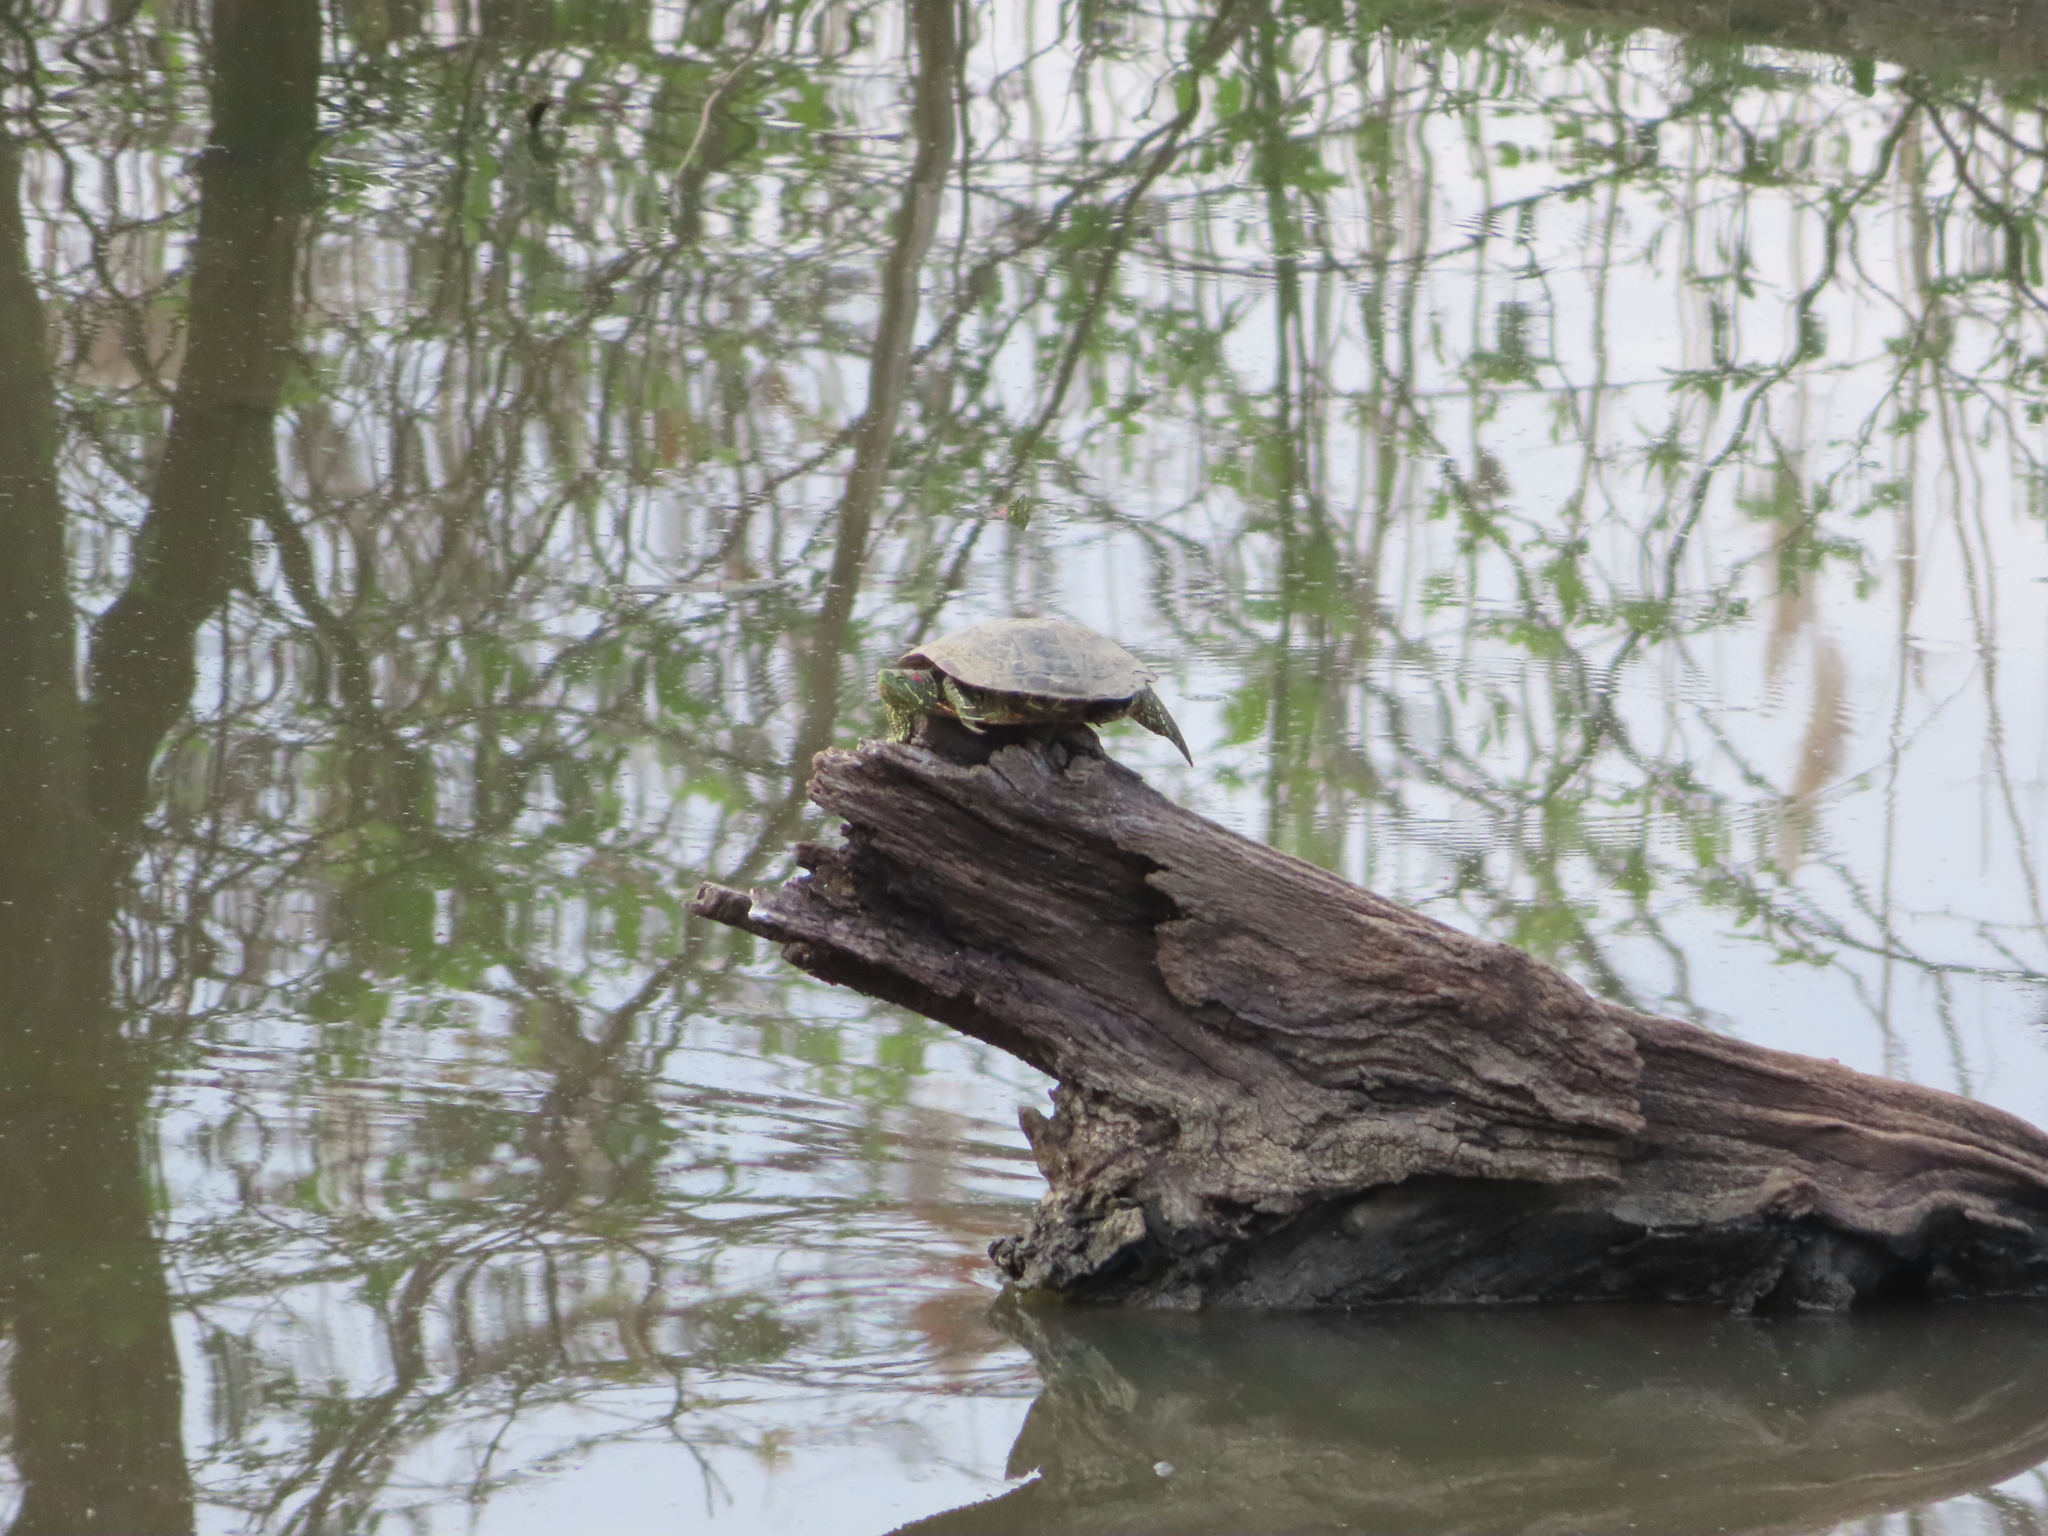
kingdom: Animalia
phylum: Chordata
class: Testudines
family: Emydidae
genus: Trachemys
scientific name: Trachemys scripta
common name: Slider
